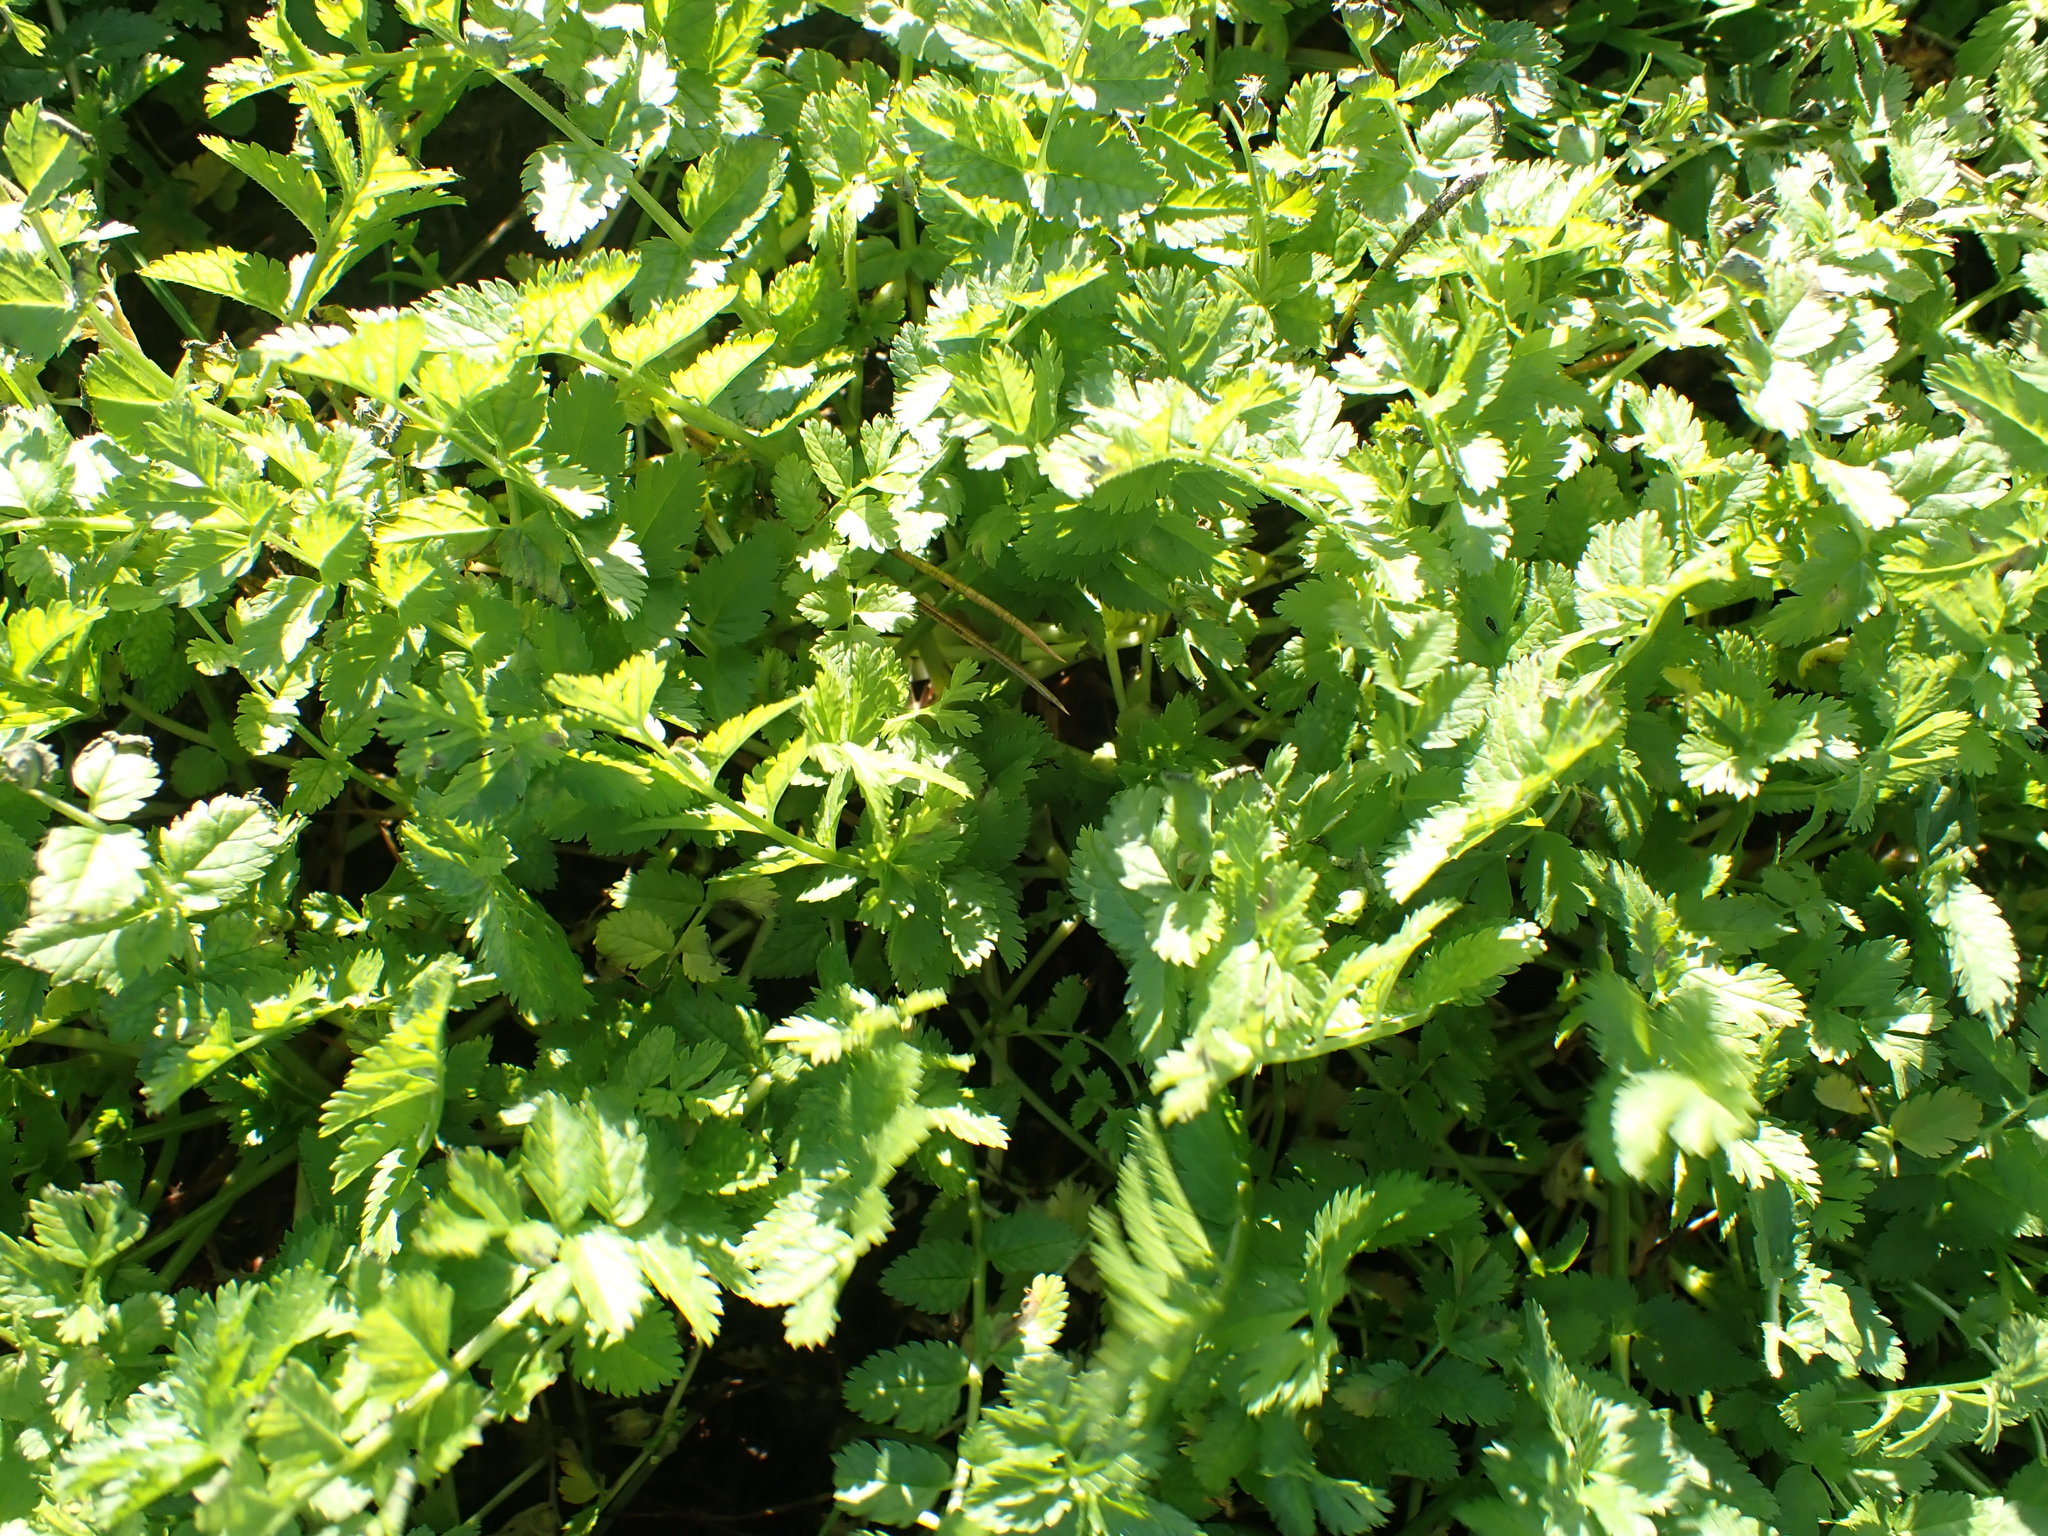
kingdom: Plantae
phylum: Tracheophyta
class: Magnoliopsida
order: Geraniales
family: Geraniaceae
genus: Erodium
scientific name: Erodium moschatum
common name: Musk stork's-bill
